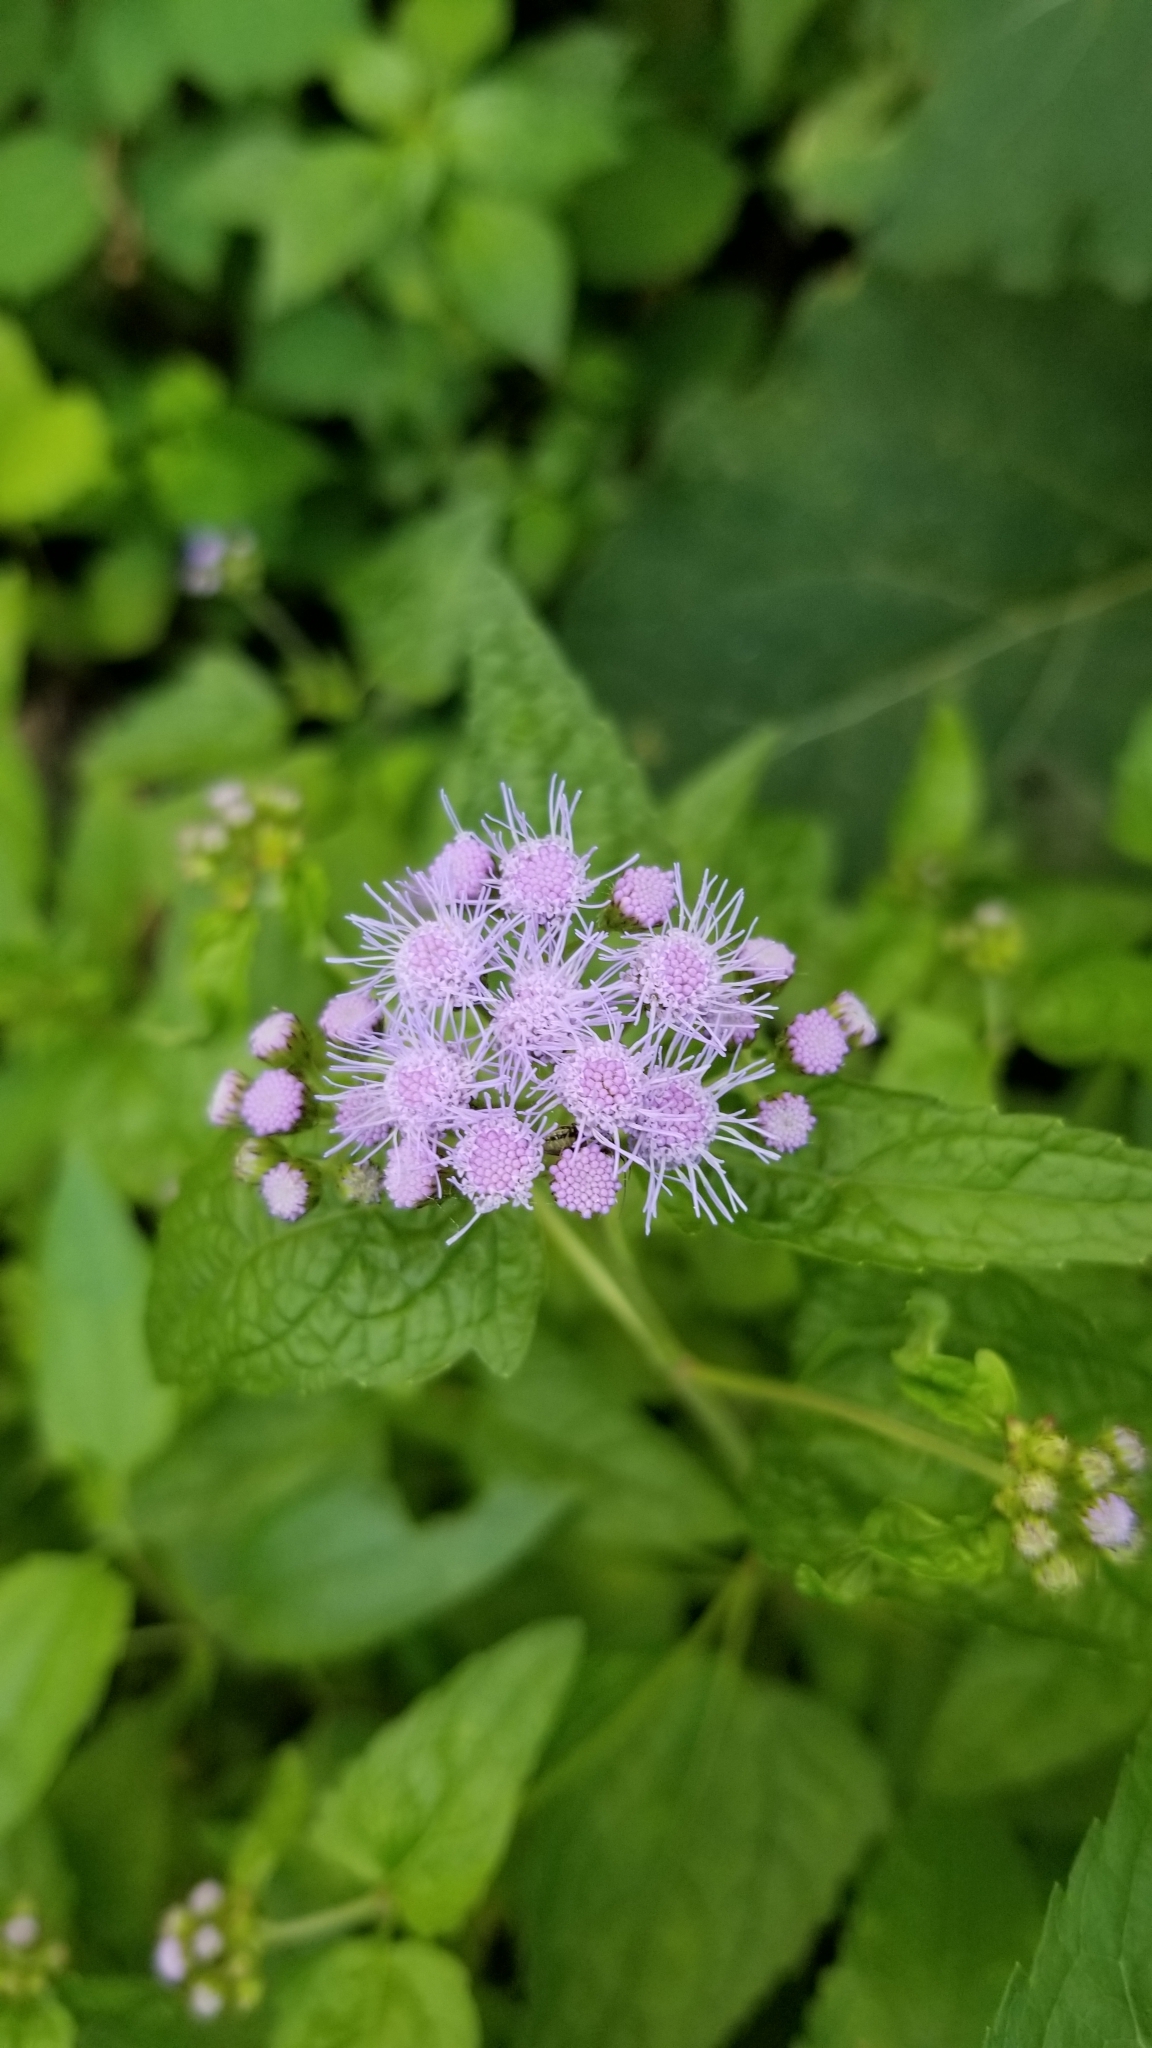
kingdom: Plantae
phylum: Tracheophyta
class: Magnoliopsida
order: Asterales
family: Asteraceae
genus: Conoclinium
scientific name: Conoclinium coelestinum
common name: Blue mistflower
